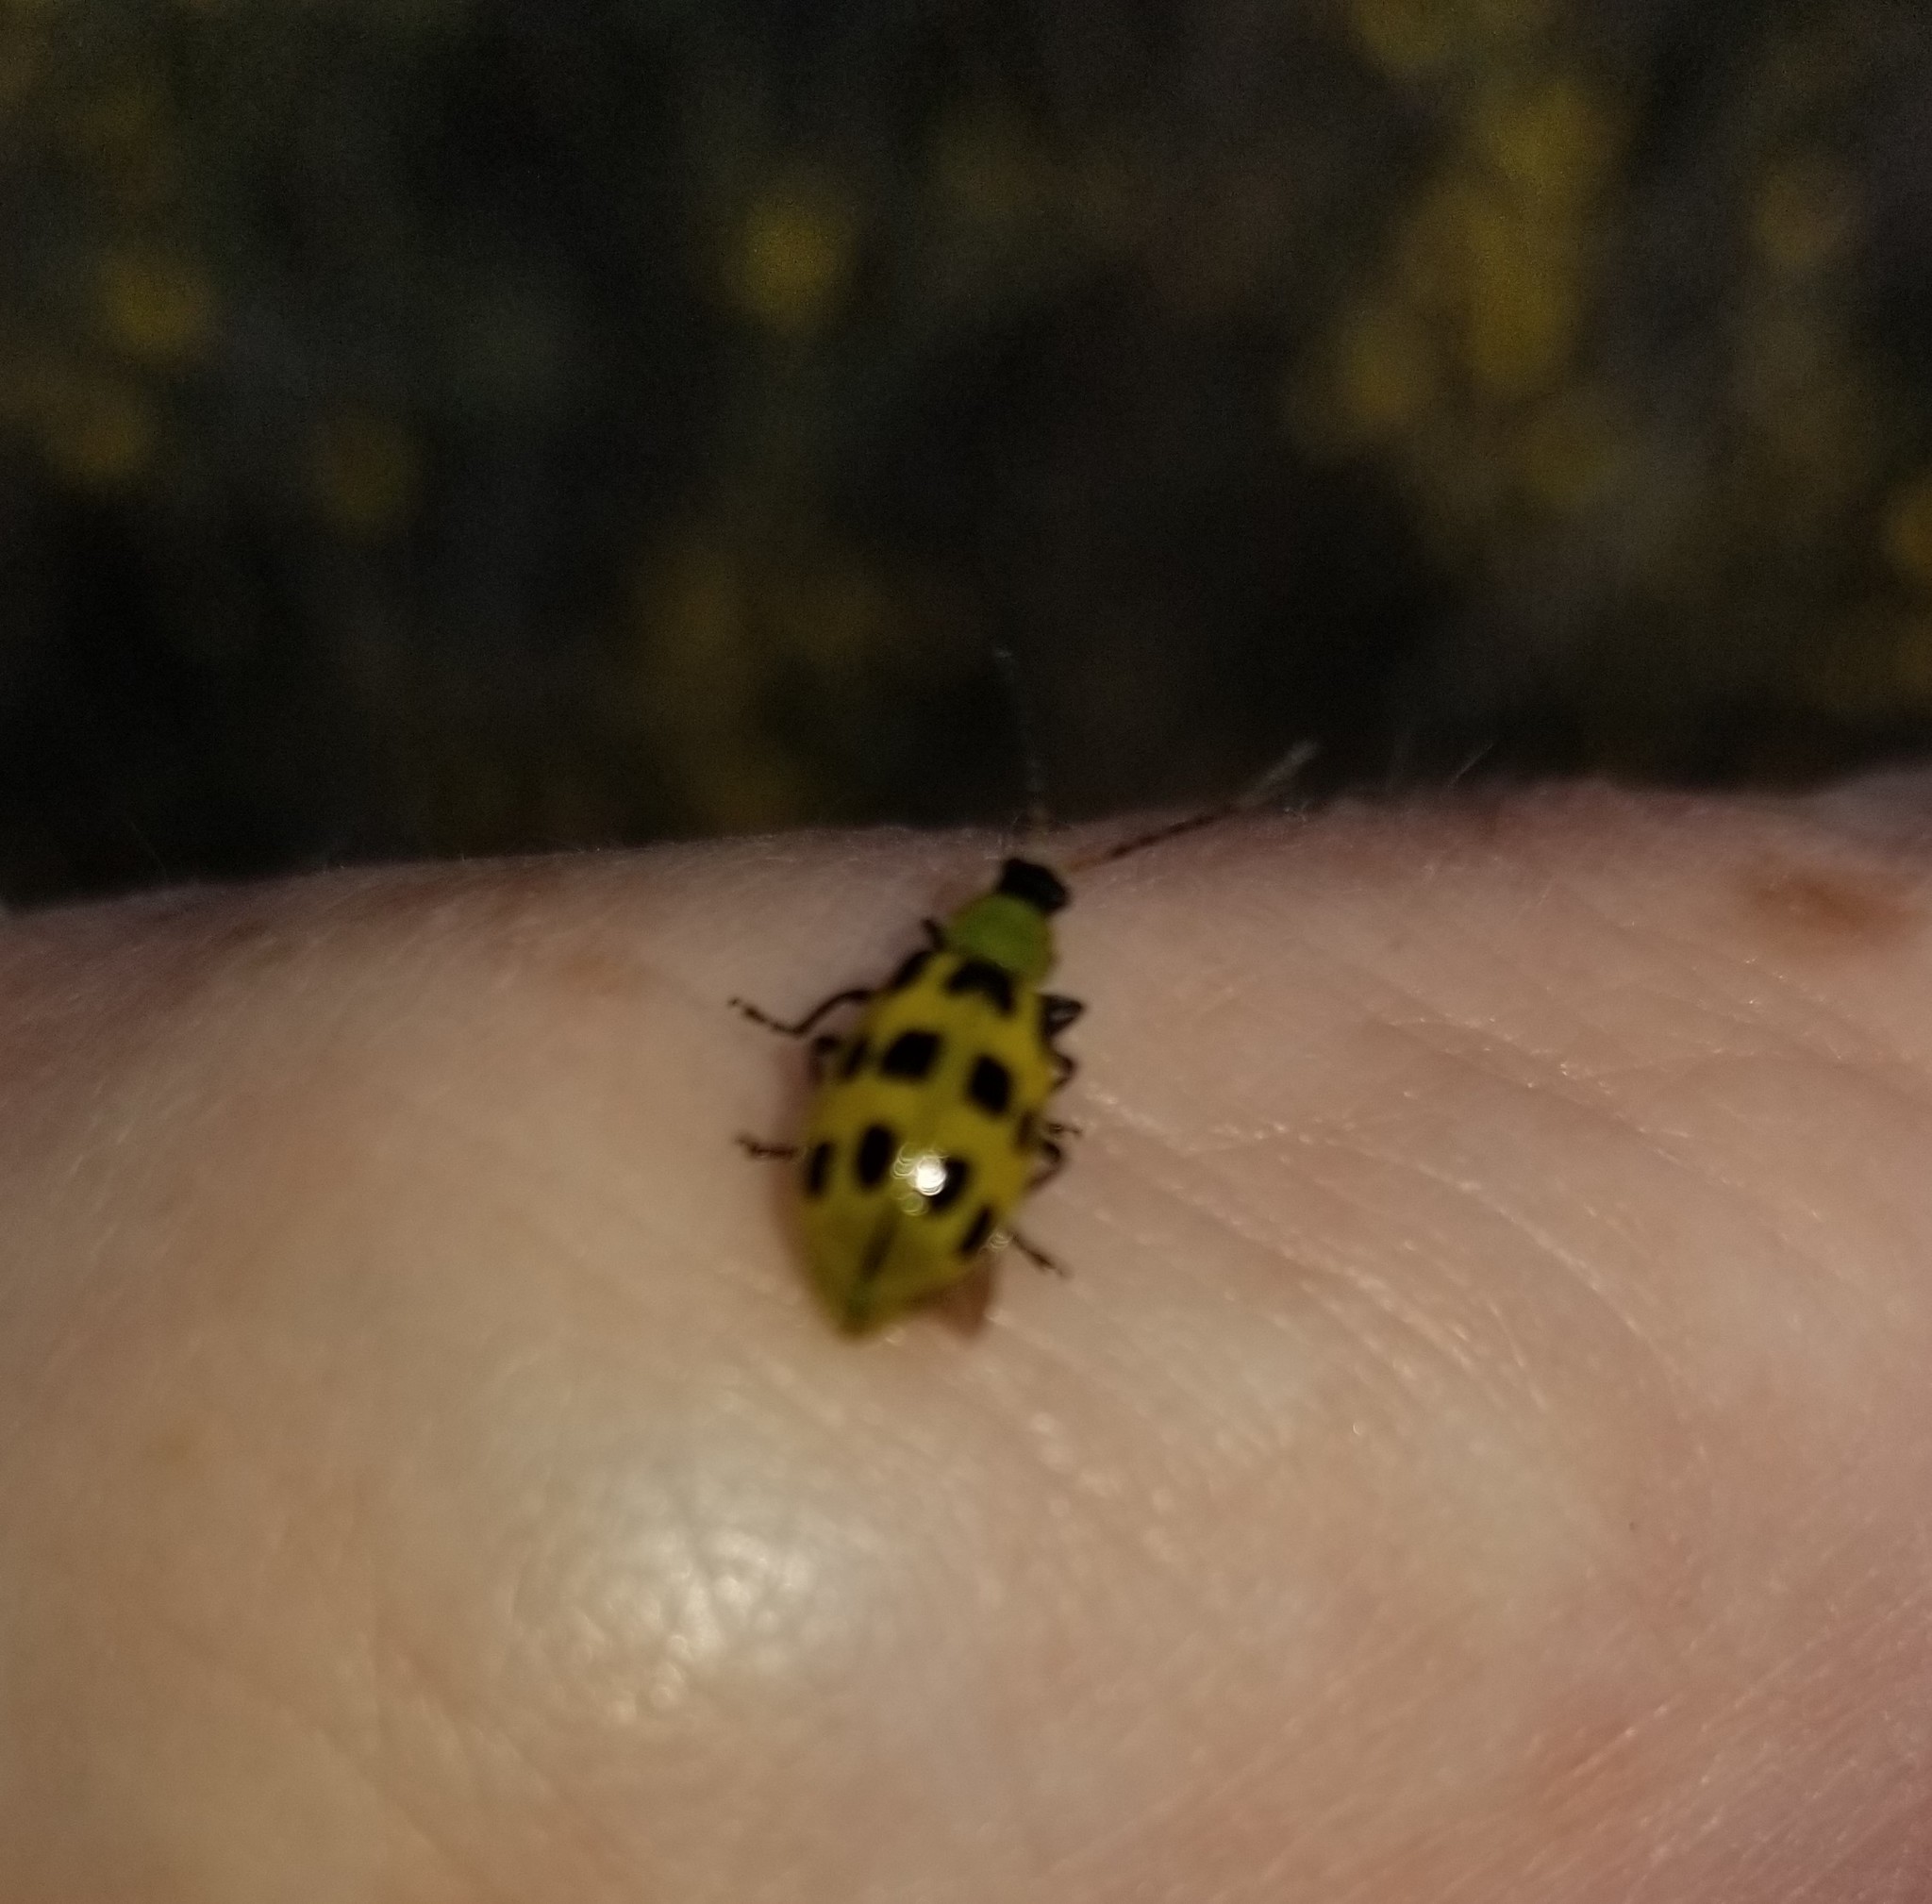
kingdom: Animalia
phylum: Arthropoda
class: Insecta
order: Coleoptera
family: Chrysomelidae
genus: Diabrotica
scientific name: Diabrotica undecimpunctata
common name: Spotted cucumber beetle
